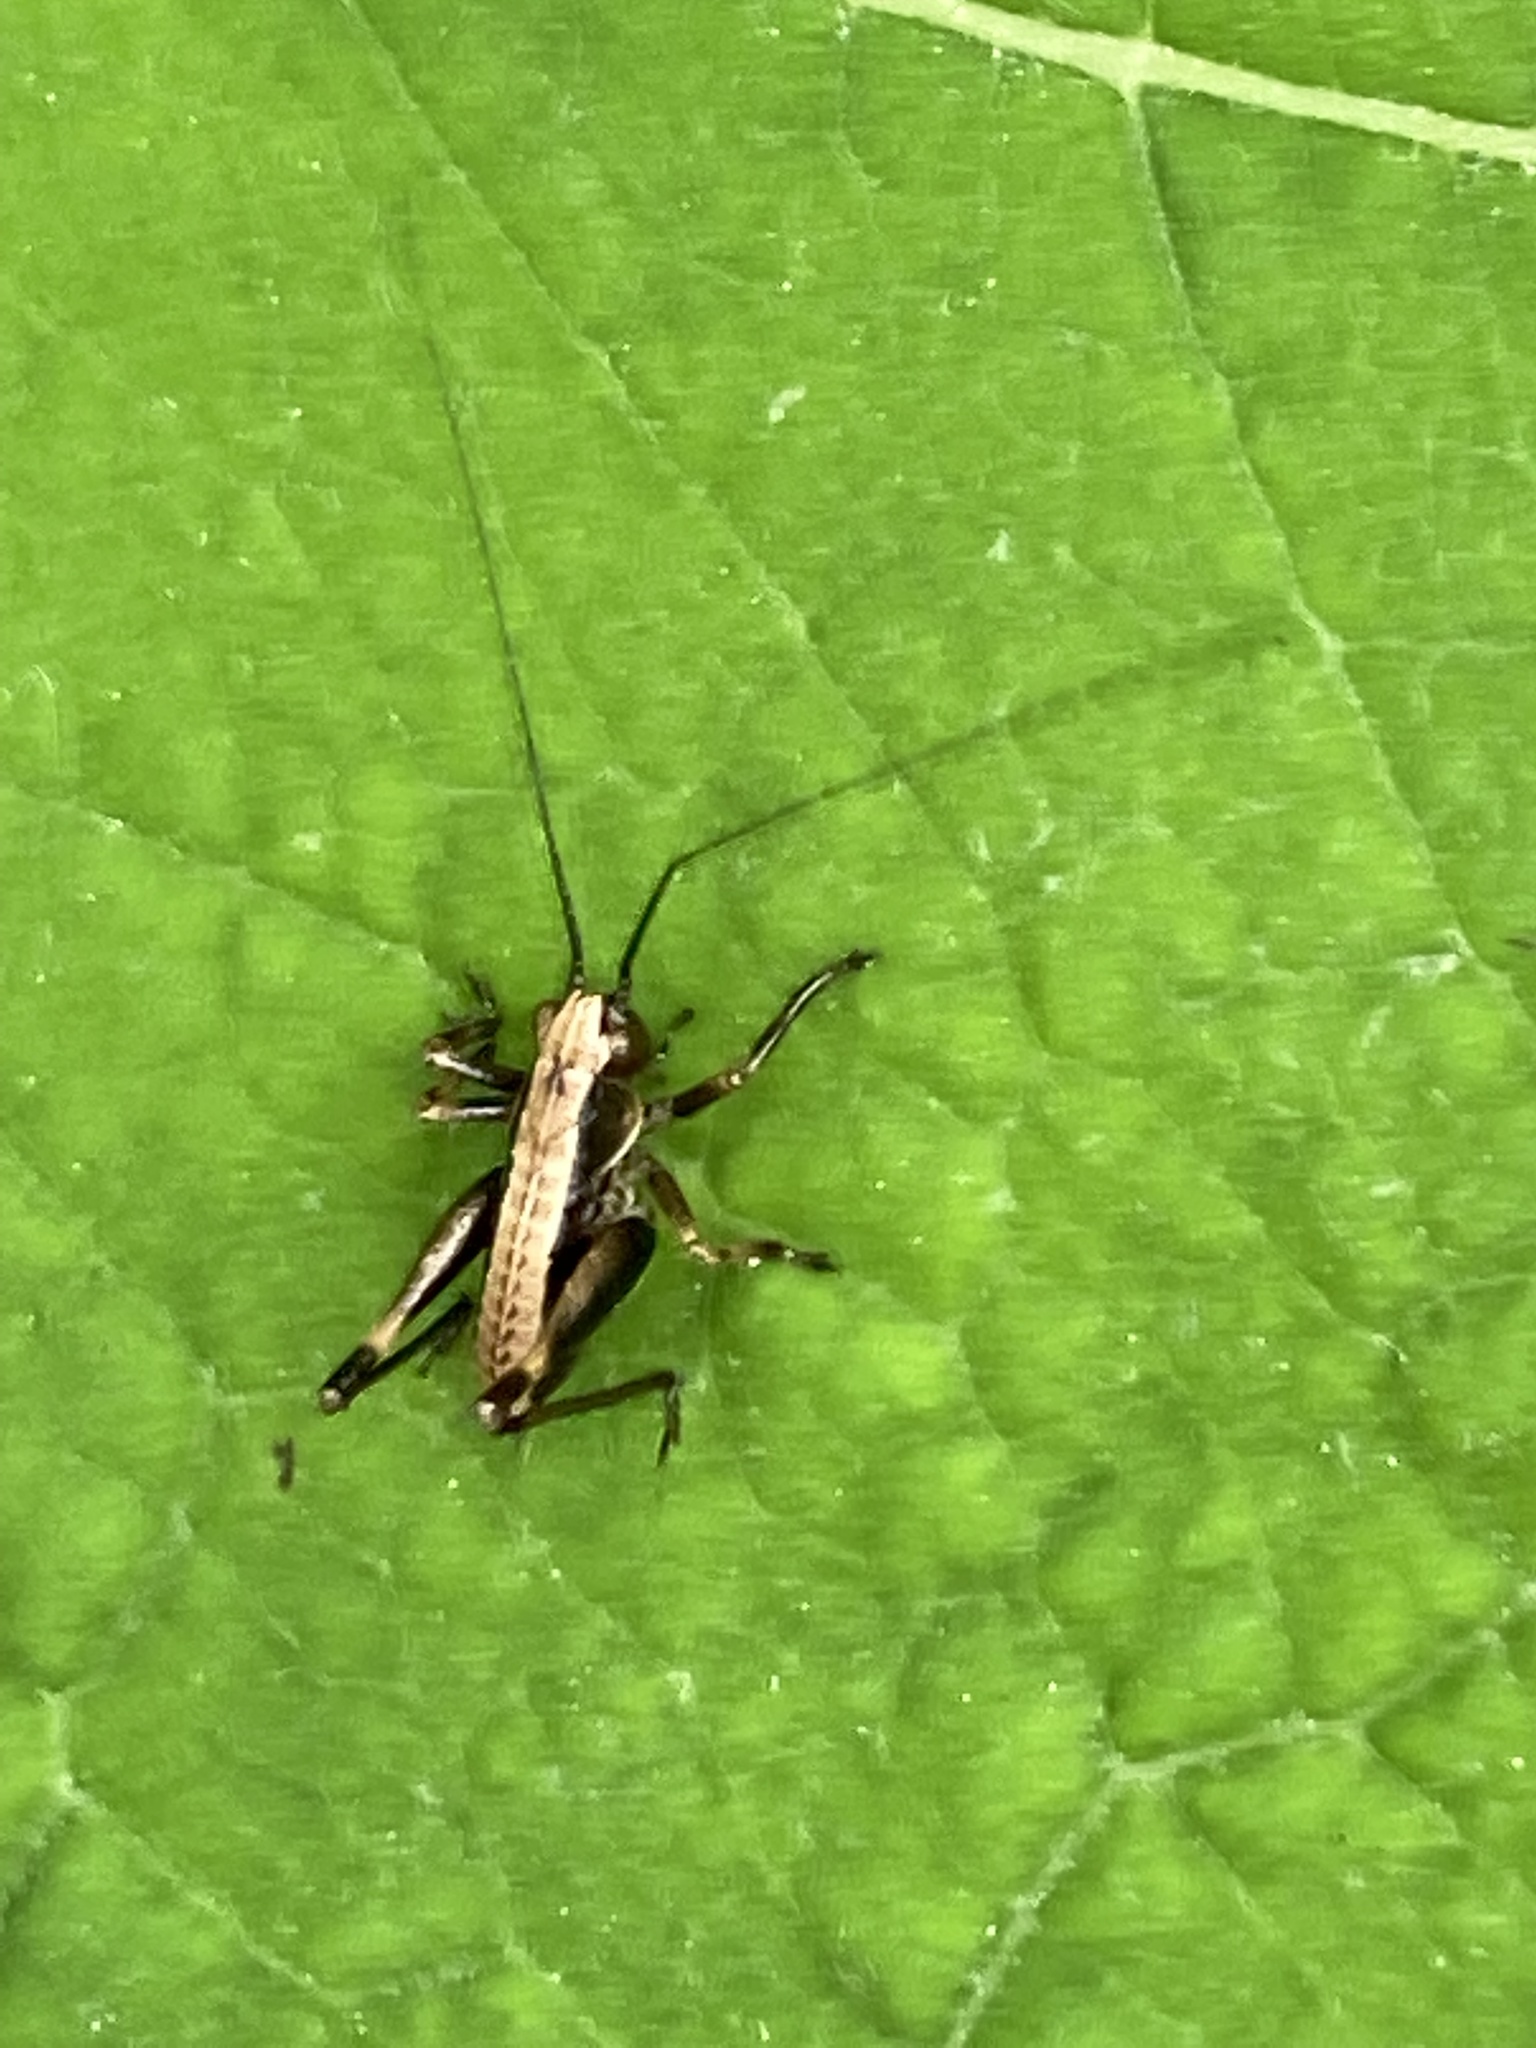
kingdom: Animalia
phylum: Arthropoda
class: Insecta
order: Orthoptera
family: Tettigoniidae
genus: Pholidoptera
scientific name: Pholidoptera griseoaptera
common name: Dark bush-cricket
